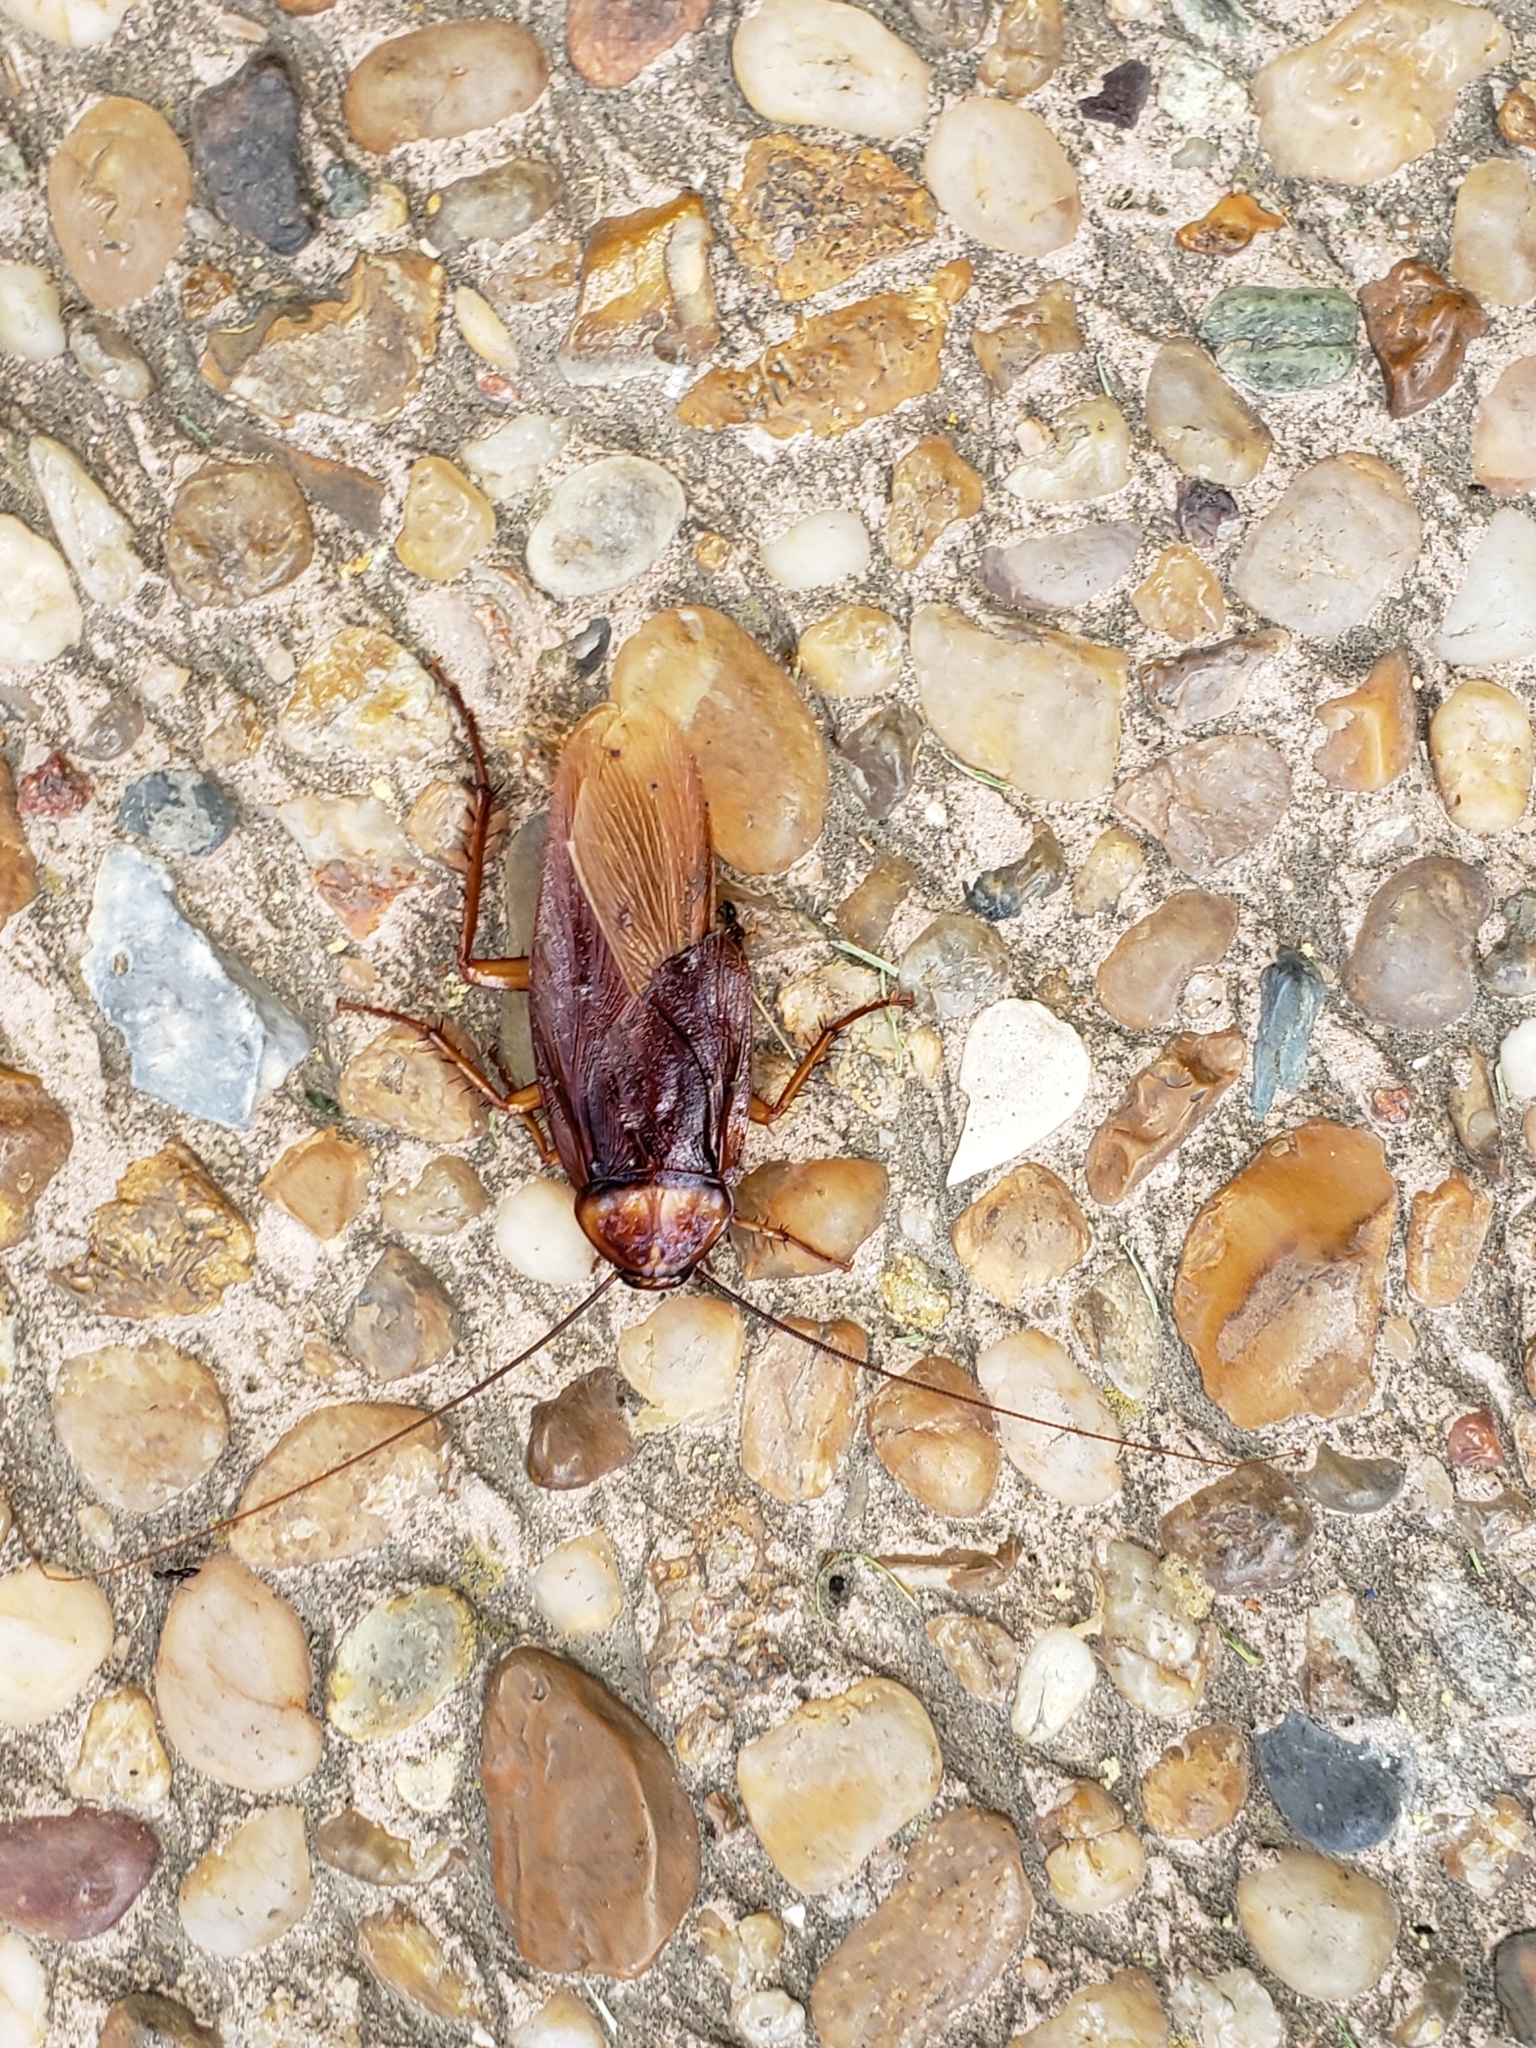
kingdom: Animalia
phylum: Arthropoda
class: Insecta
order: Blattodea
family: Blattidae
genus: Periplaneta
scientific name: Periplaneta americana
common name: American cockroach
